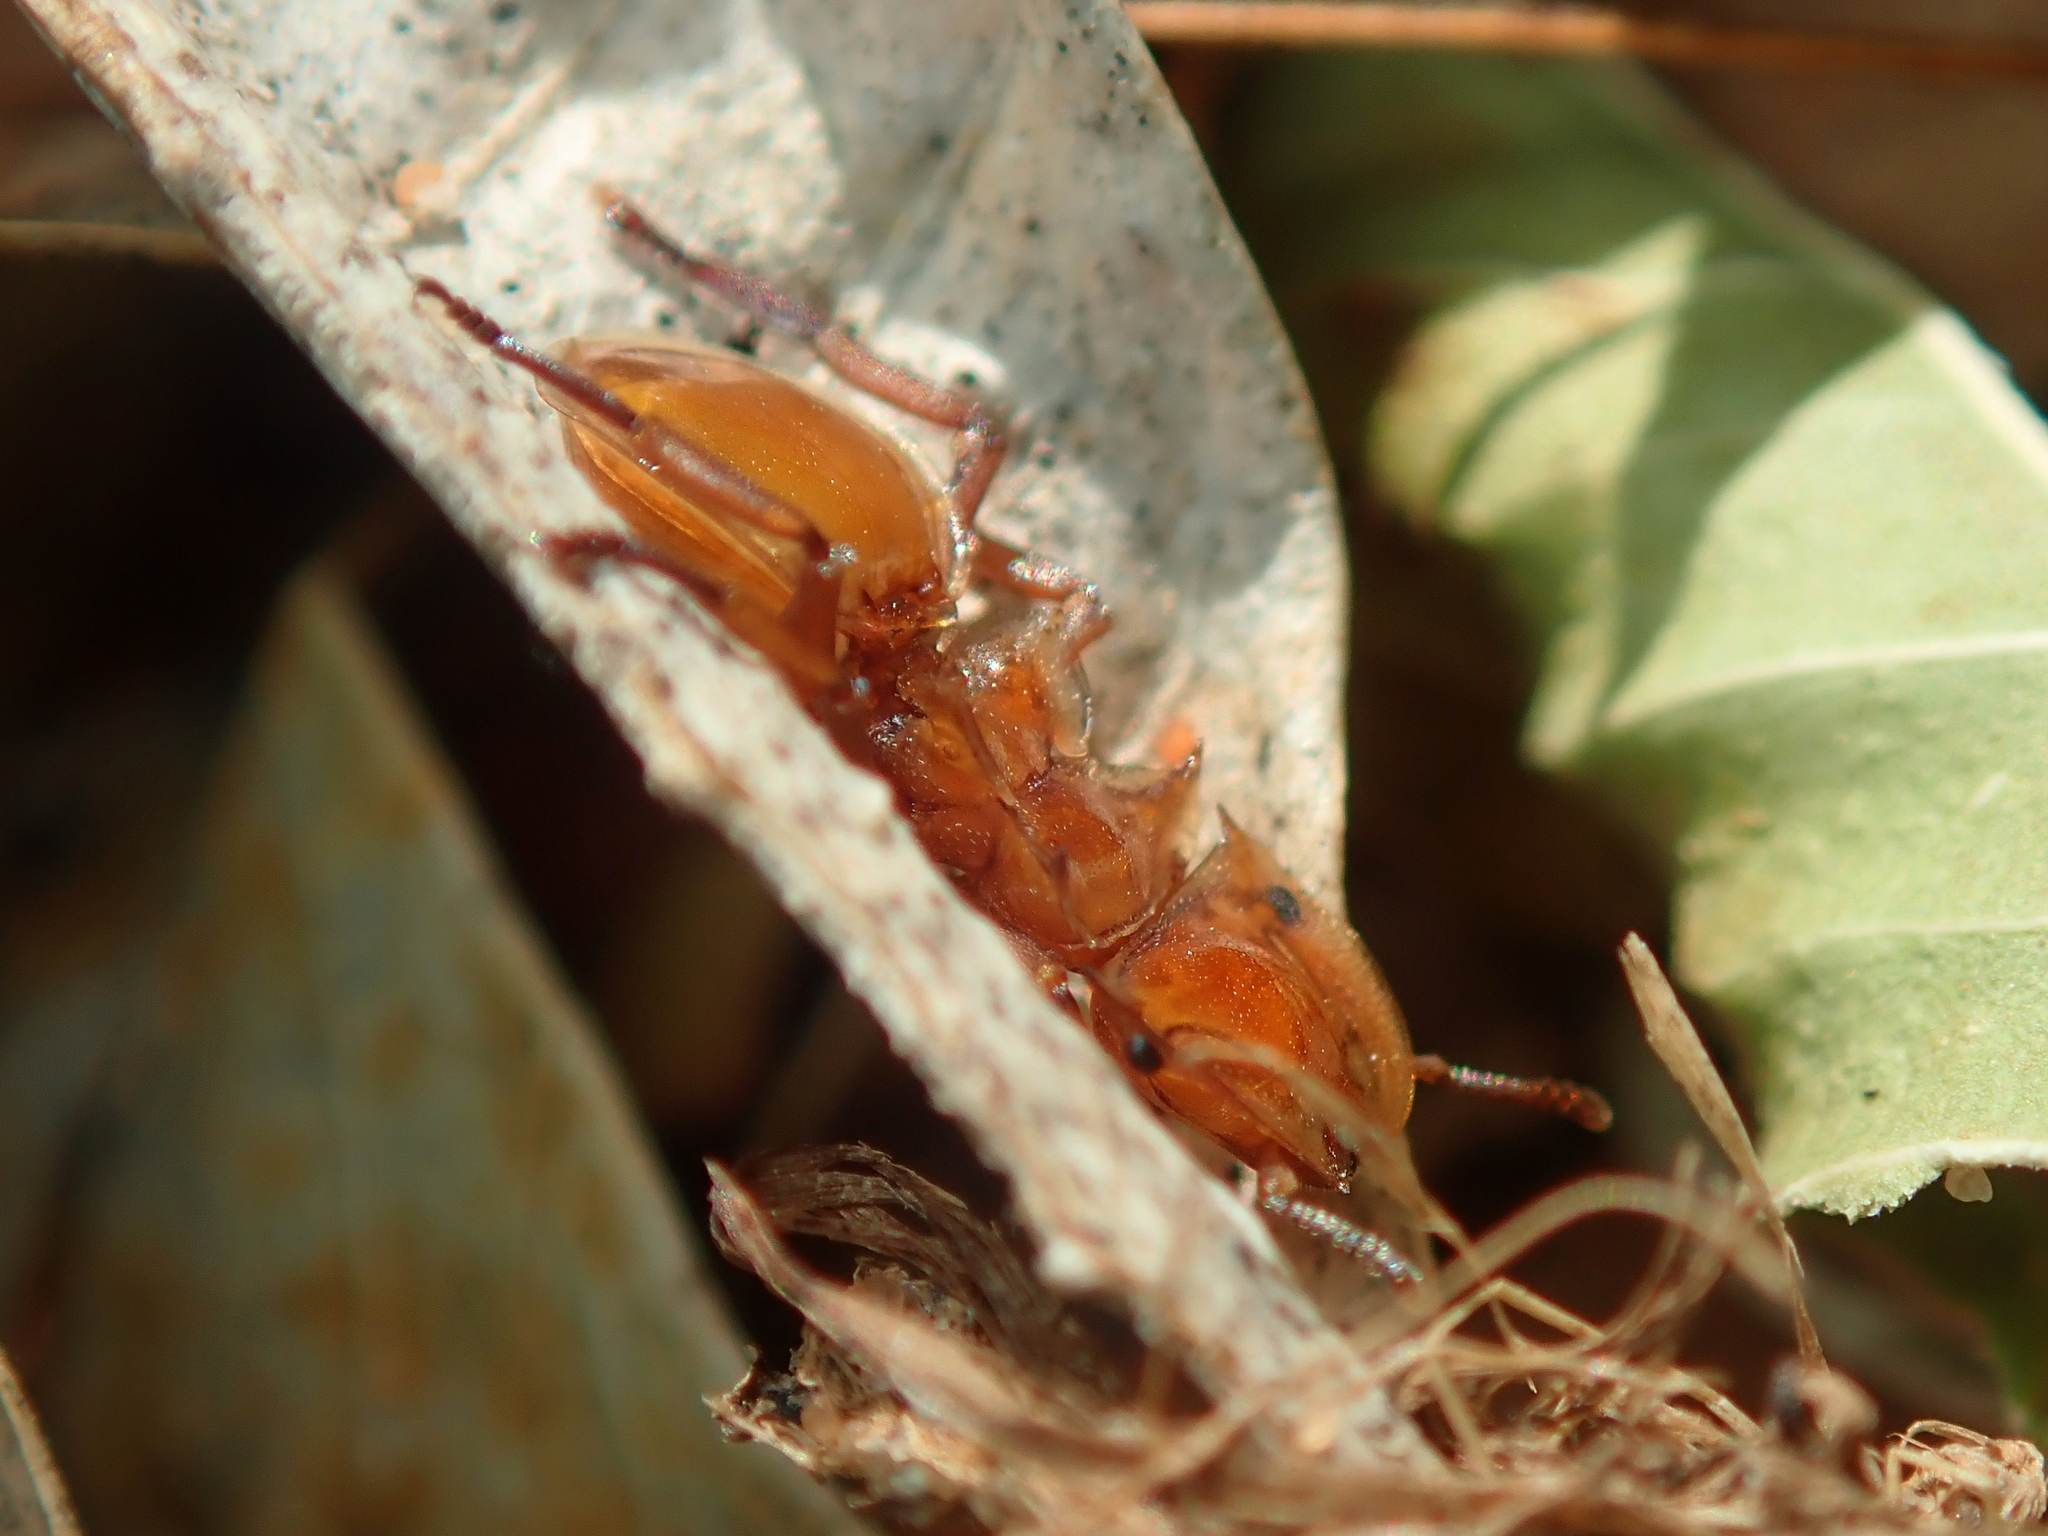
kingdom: Animalia
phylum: Arthropoda
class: Insecta
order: Hymenoptera
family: Formicidae
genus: Cephalotes
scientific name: Cephalotes clypeatus
